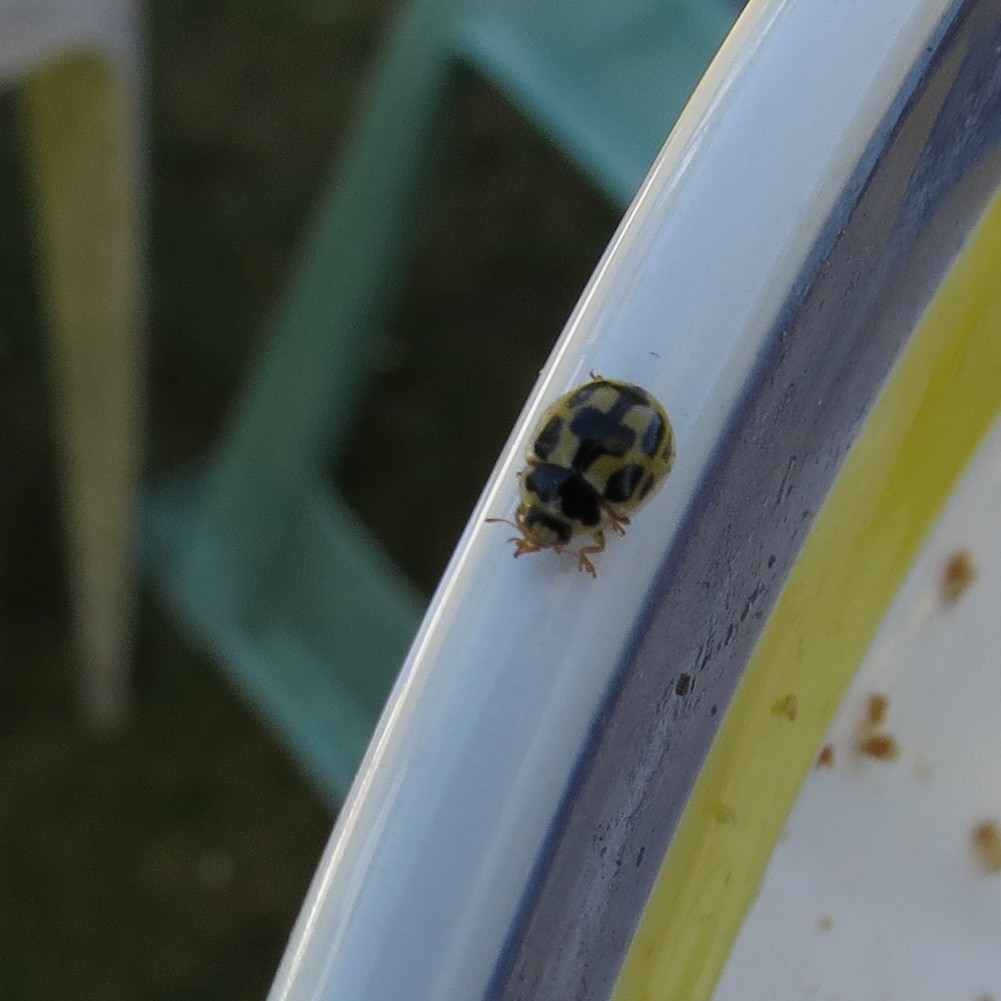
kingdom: Animalia
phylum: Arthropoda
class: Insecta
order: Coleoptera
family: Coccinellidae
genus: Propylaea
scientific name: Propylaea quatuordecimpunctata
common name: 14-spotted ladybird beetle
